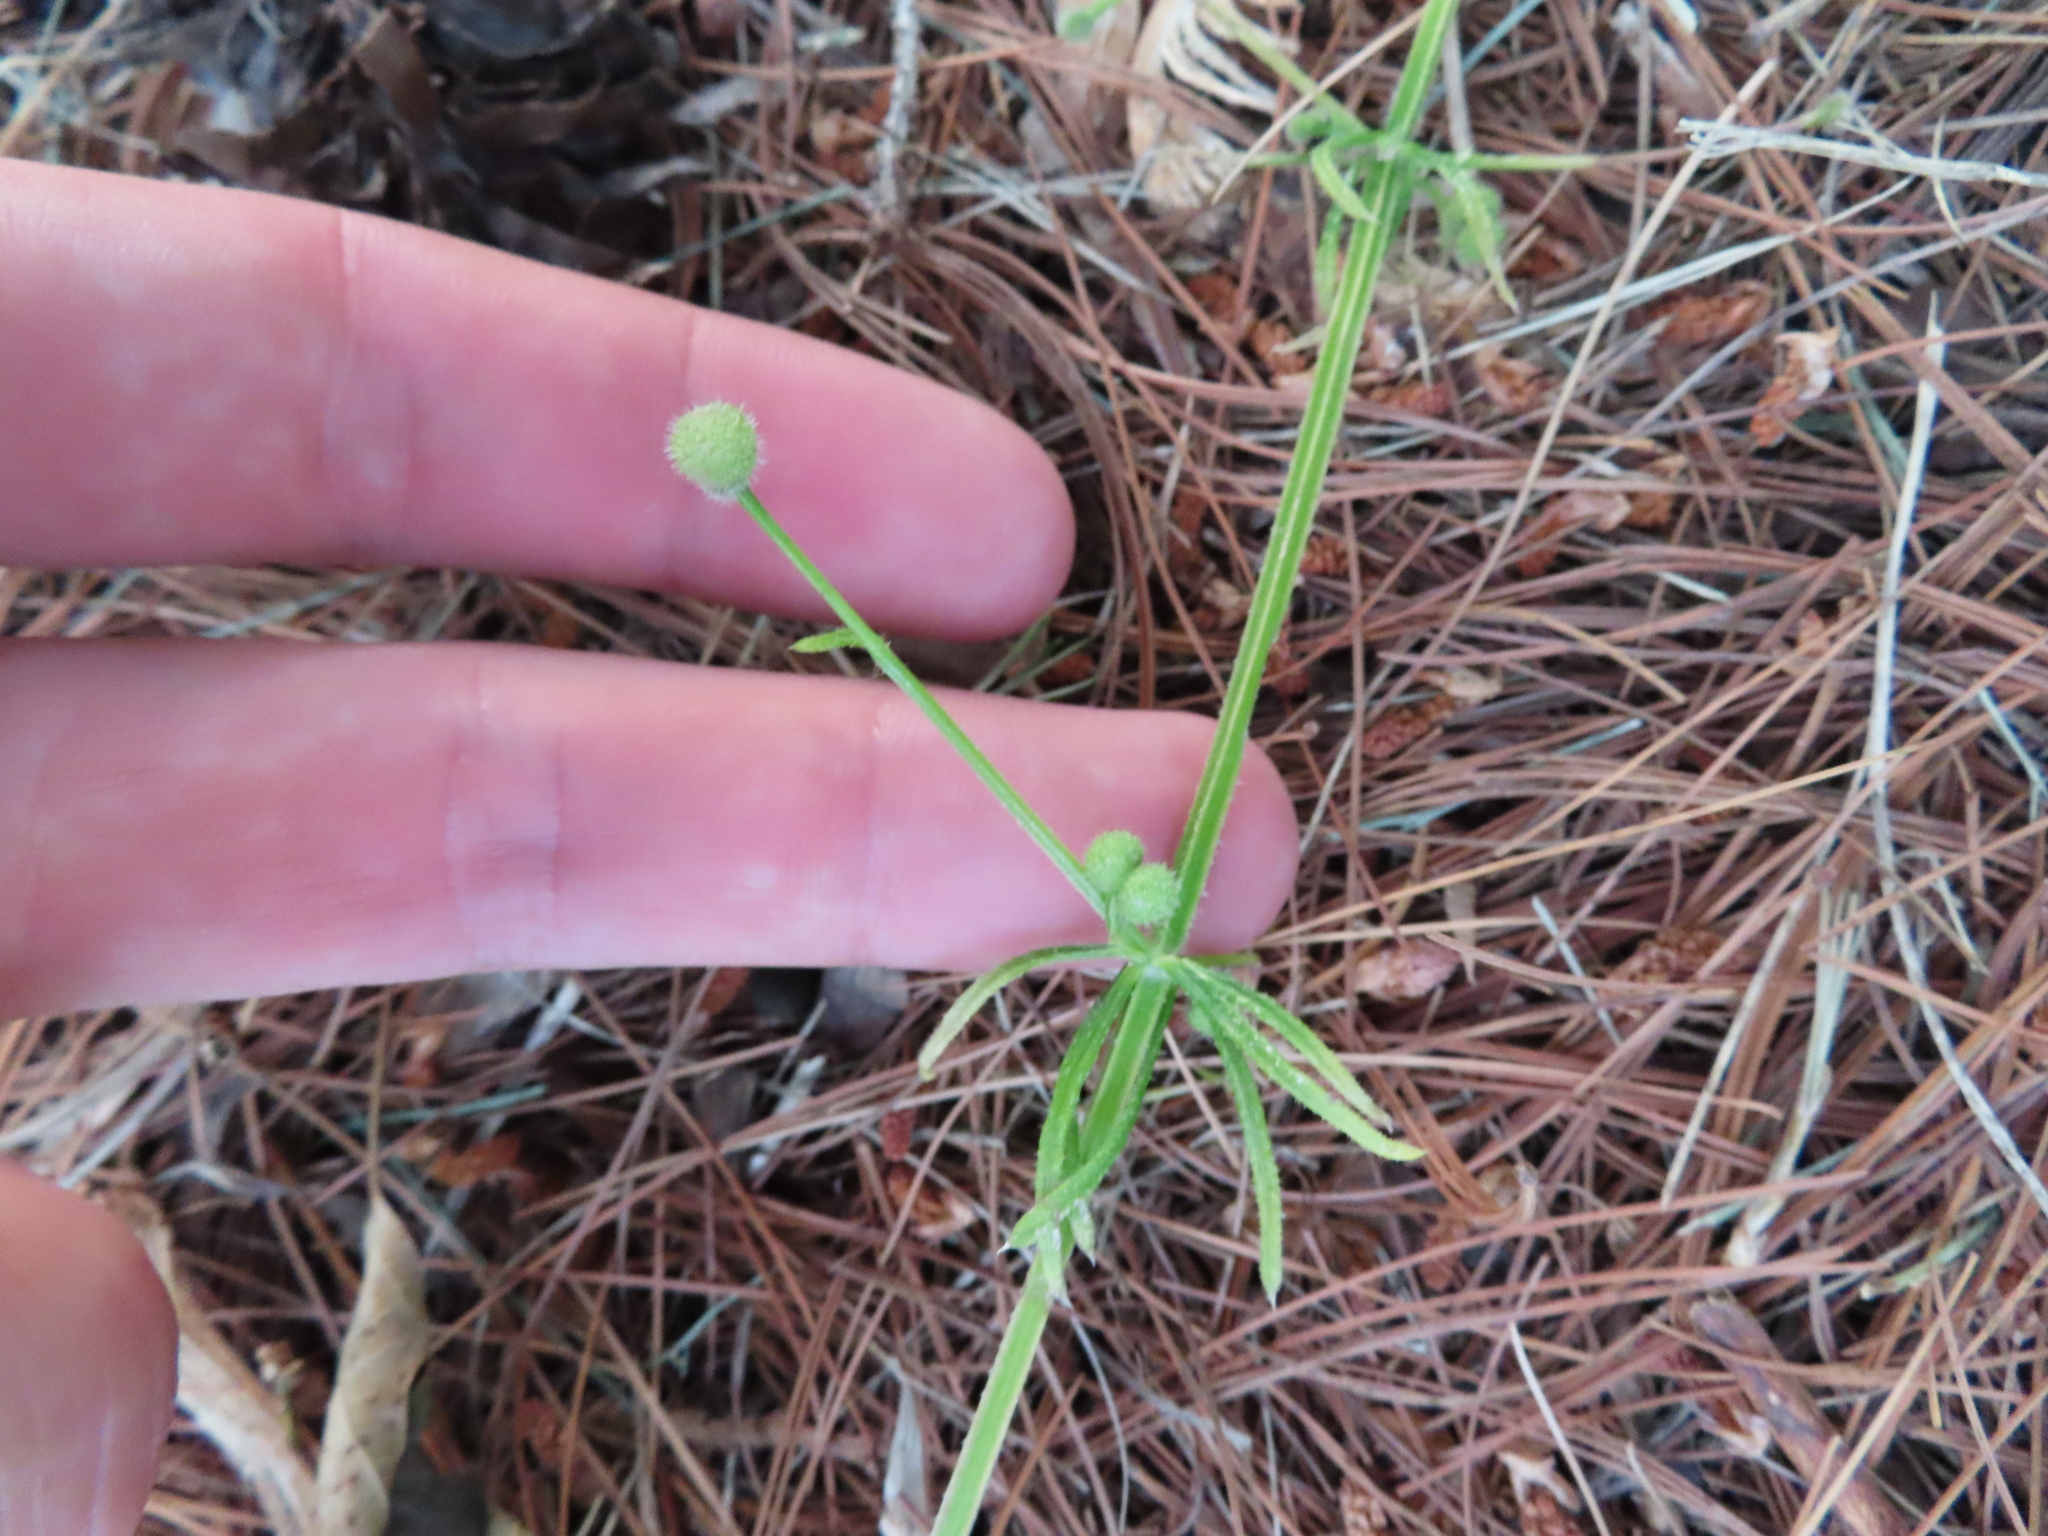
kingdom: Plantae
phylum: Tracheophyta
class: Magnoliopsida
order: Gentianales
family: Rubiaceae
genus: Galium
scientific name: Galium aparine
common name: Cleavers
